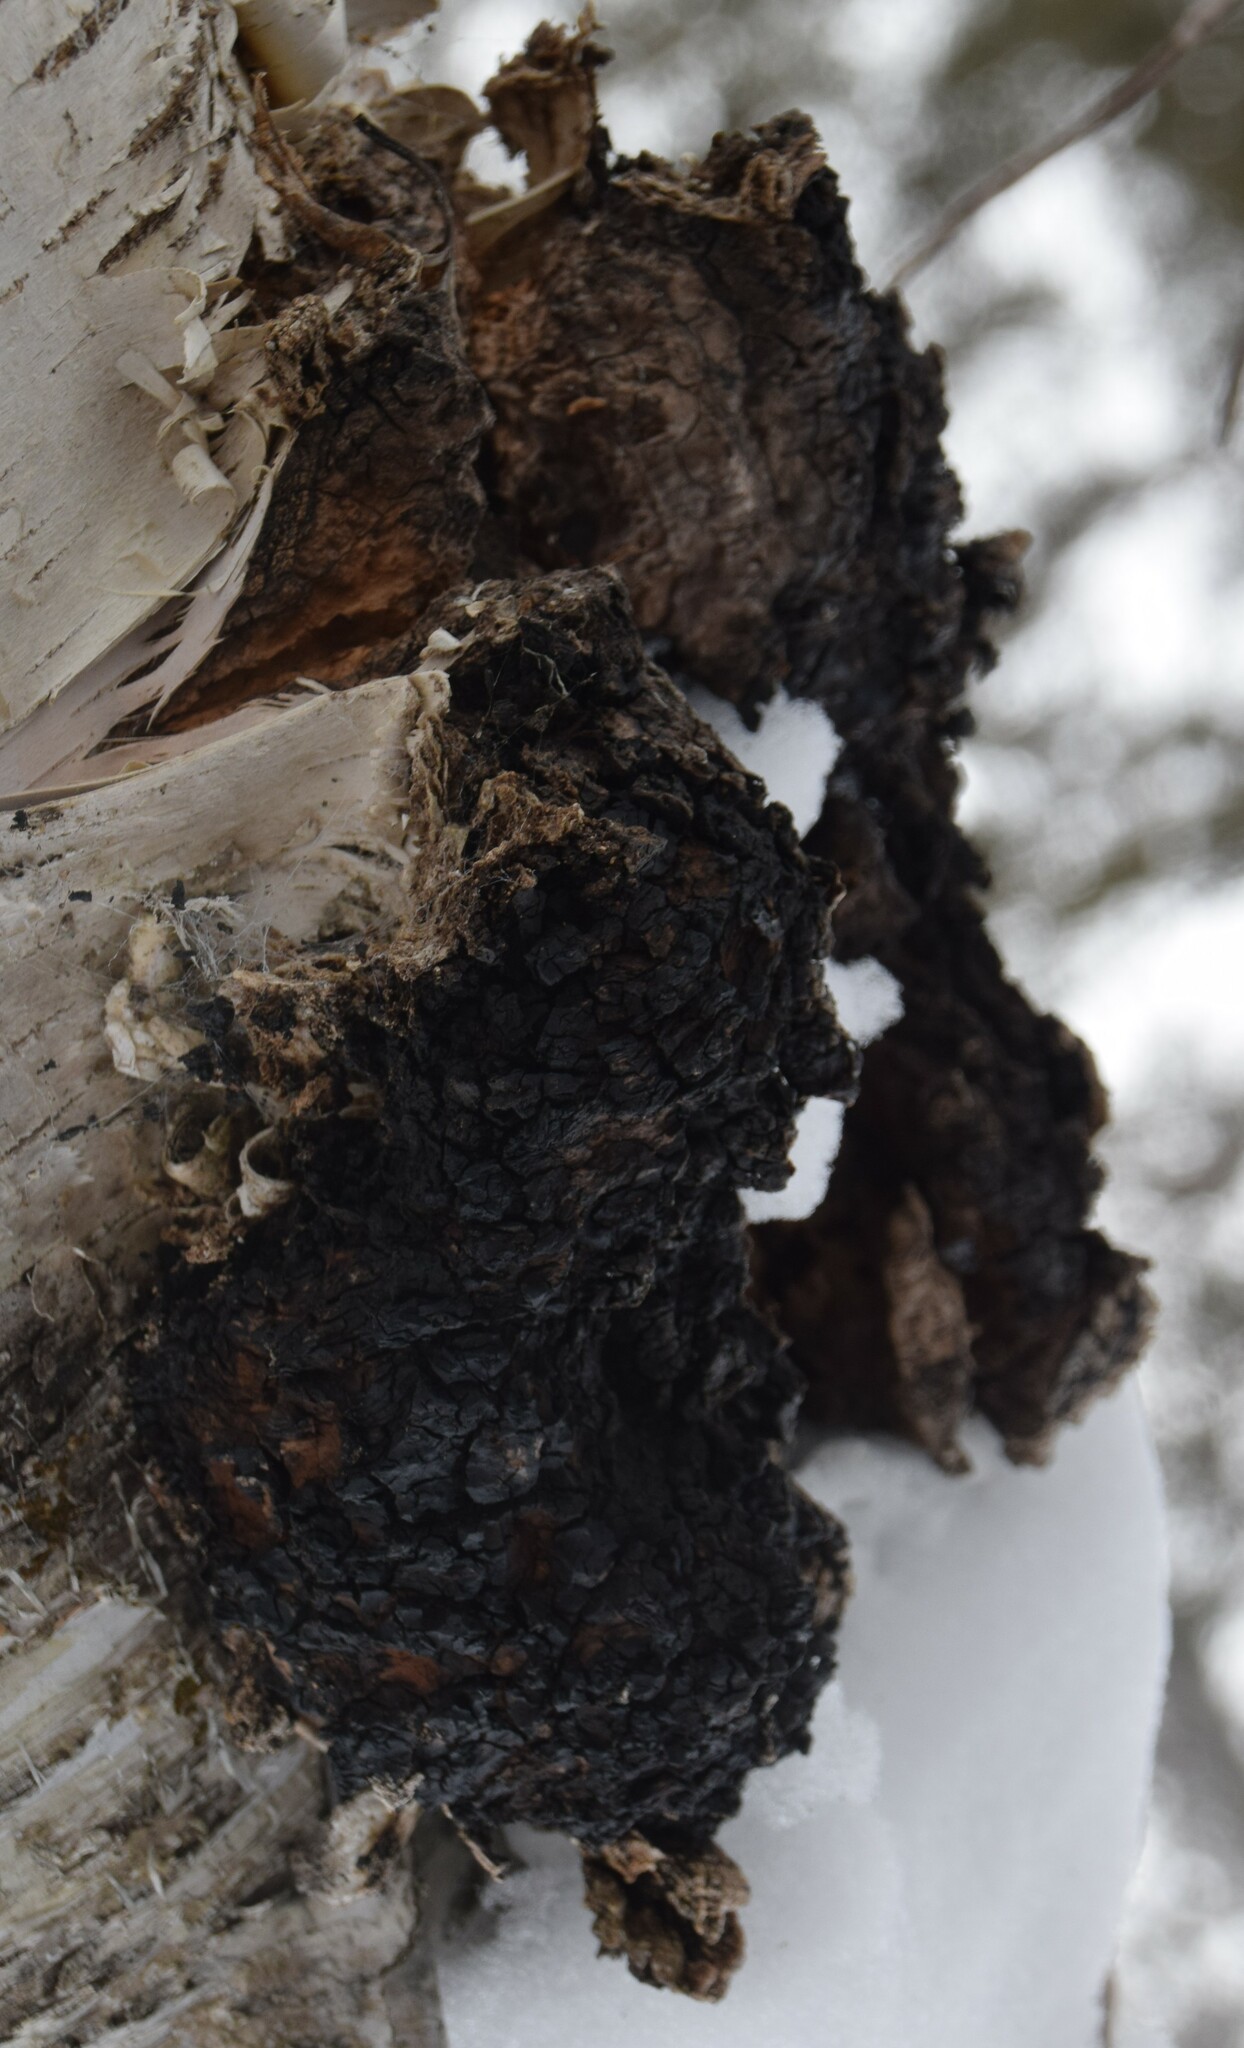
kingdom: Fungi
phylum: Basidiomycota
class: Agaricomycetes
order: Hymenochaetales
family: Hymenochaetaceae
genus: Inonotus
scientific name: Inonotus obliquus
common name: Chaga
